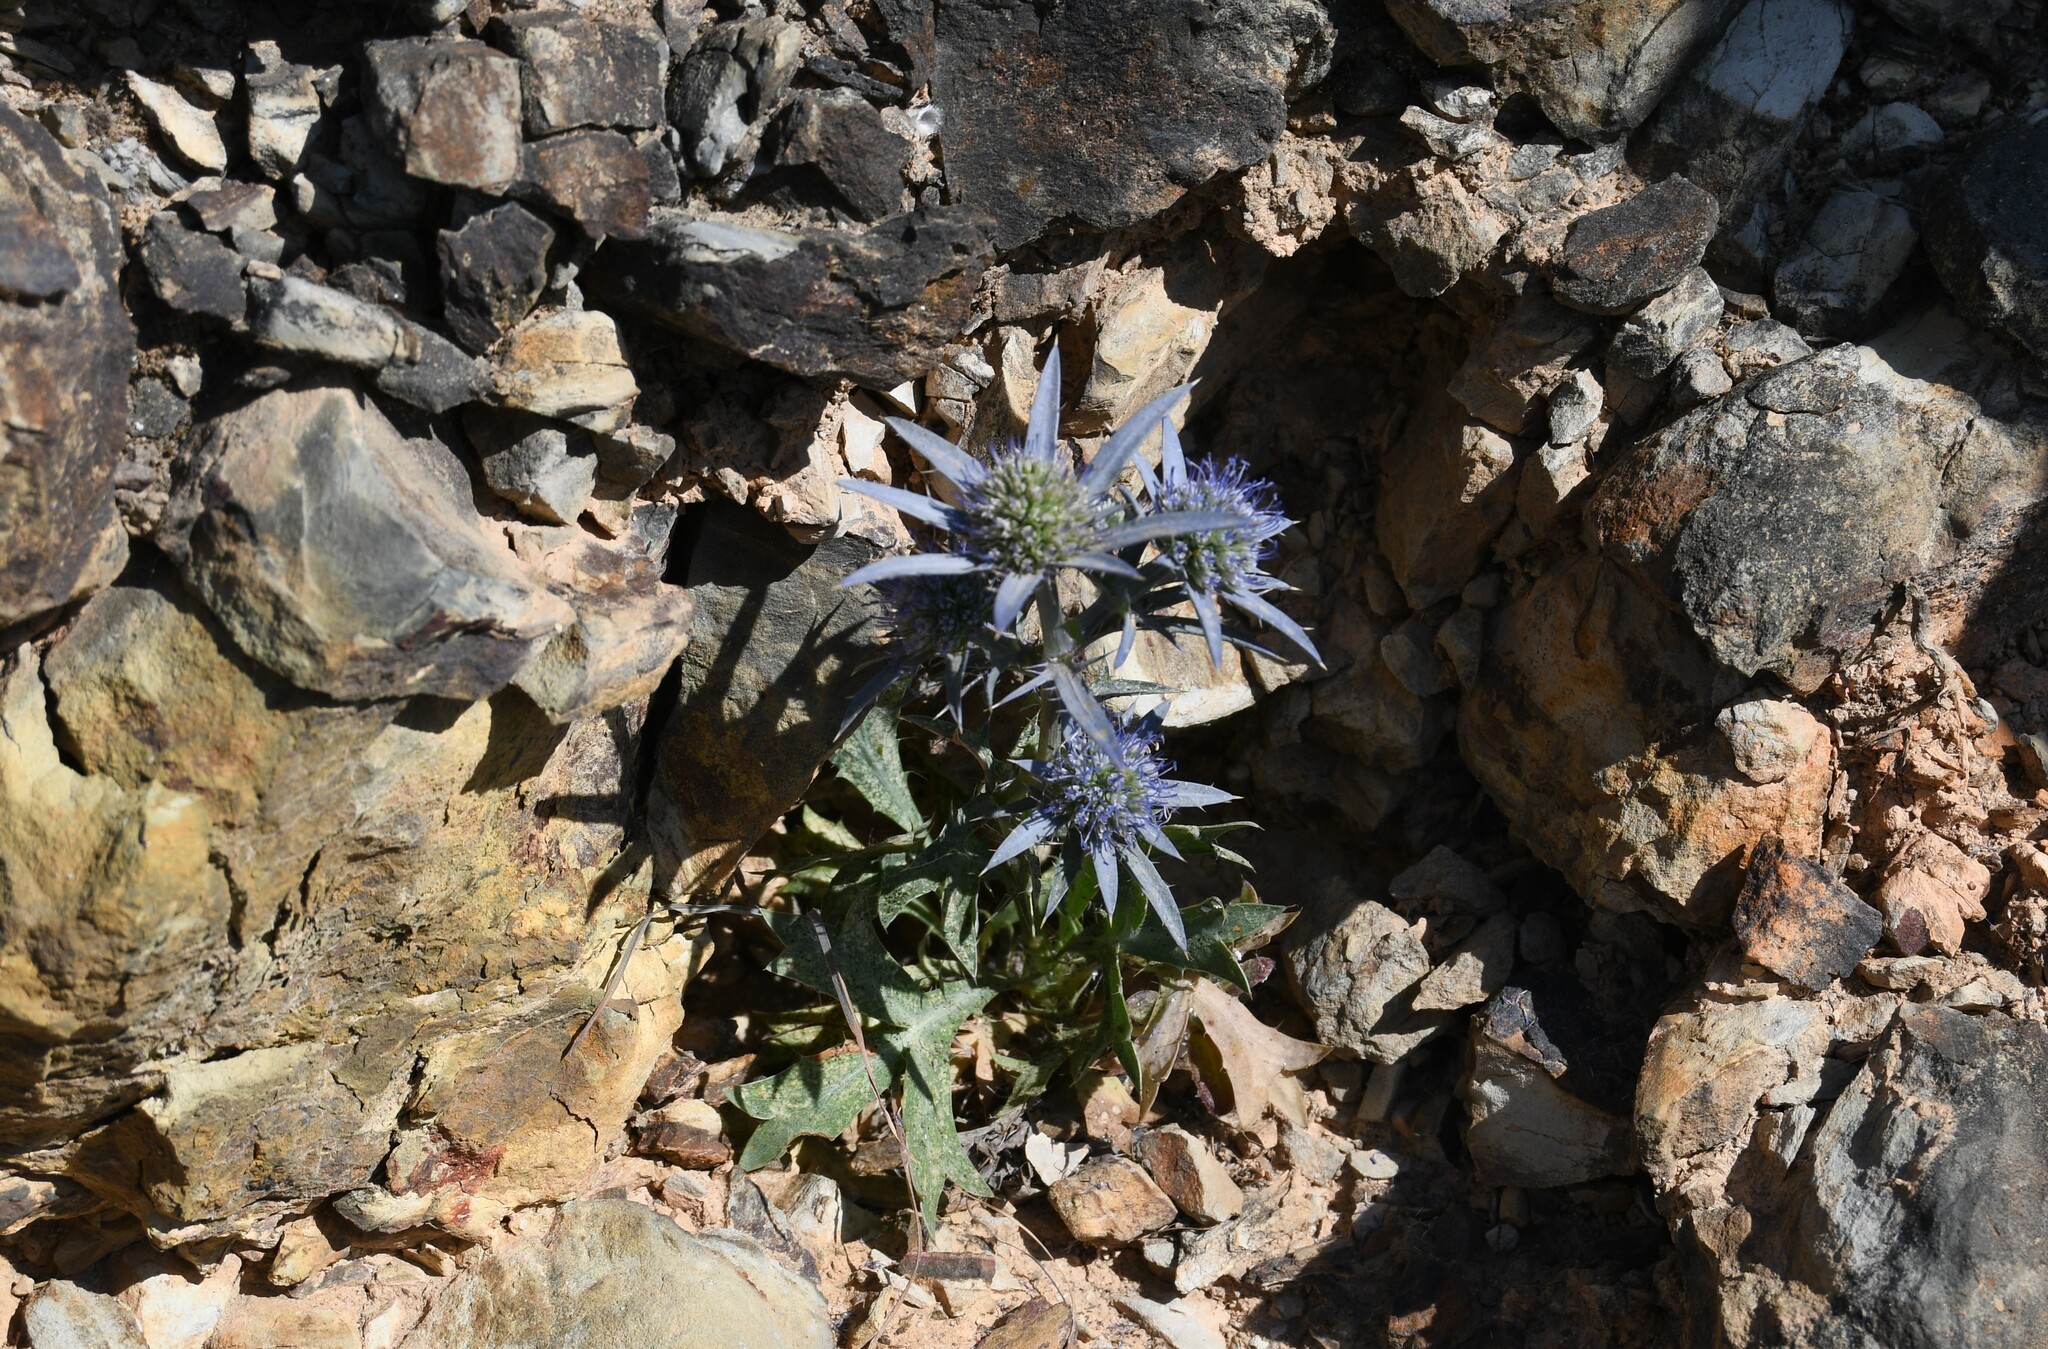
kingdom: Plantae
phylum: Tracheophyta
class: Magnoliopsida
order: Apiales
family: Apiaceae
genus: Eryngium
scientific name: Eryngium dilatatum
